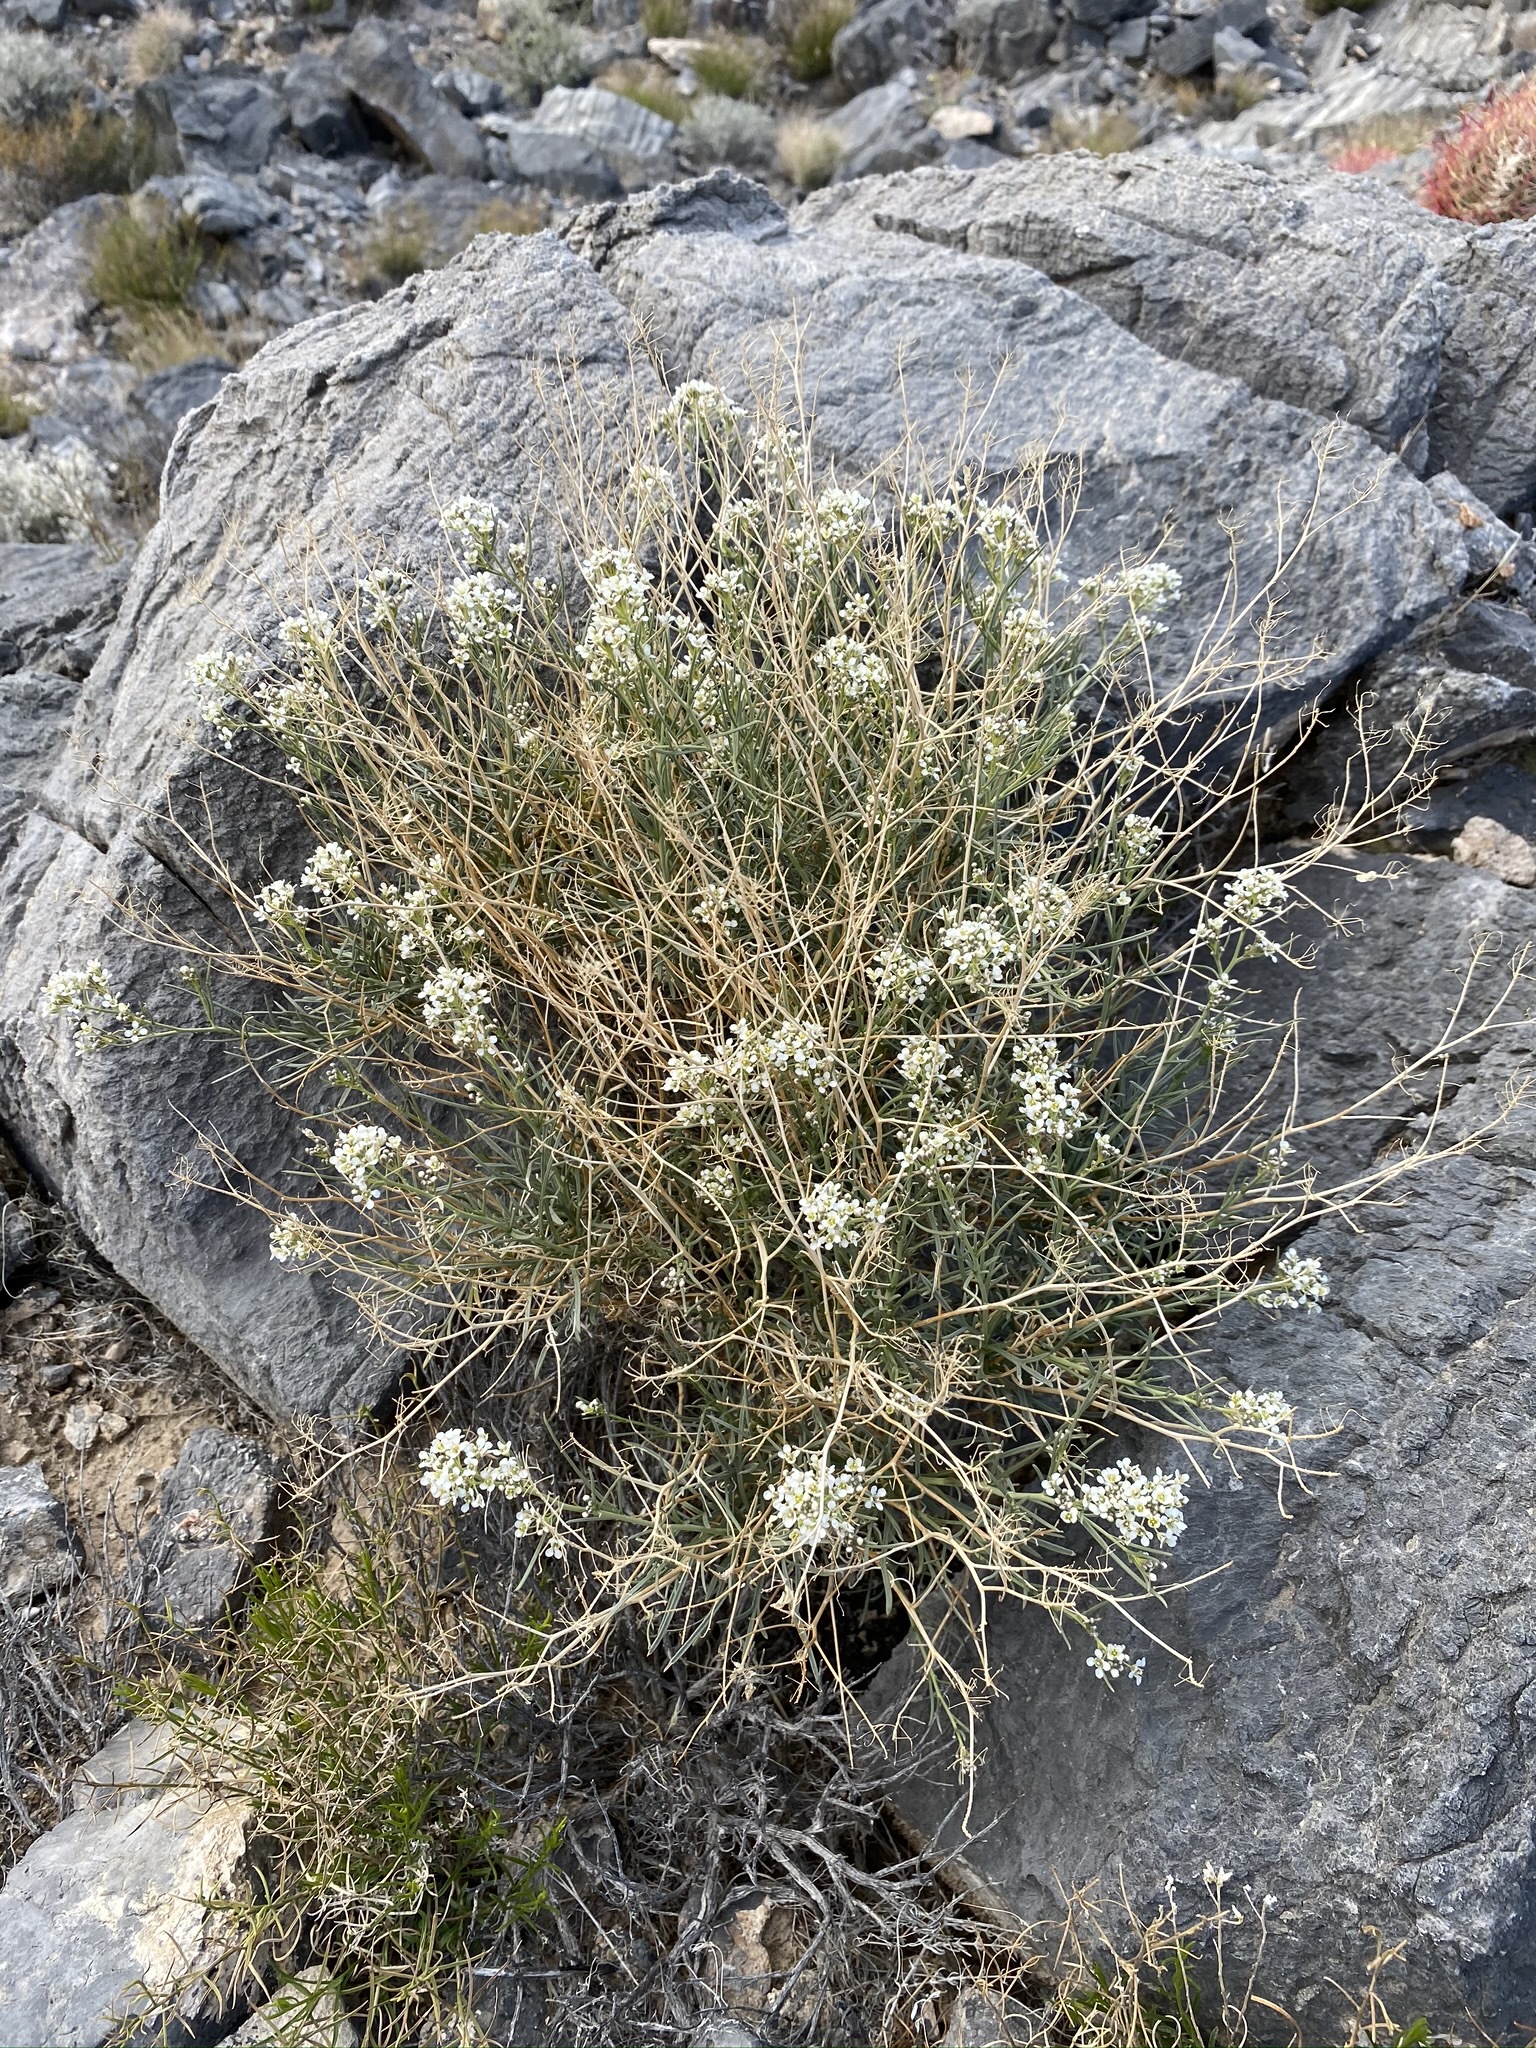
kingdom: Plantae
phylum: Tracheophyta
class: Magnoliopsida
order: Brassicales
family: Brassicaceae
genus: Lepidium
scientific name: Lepidium fremontii
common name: Fremont's pepperwort
